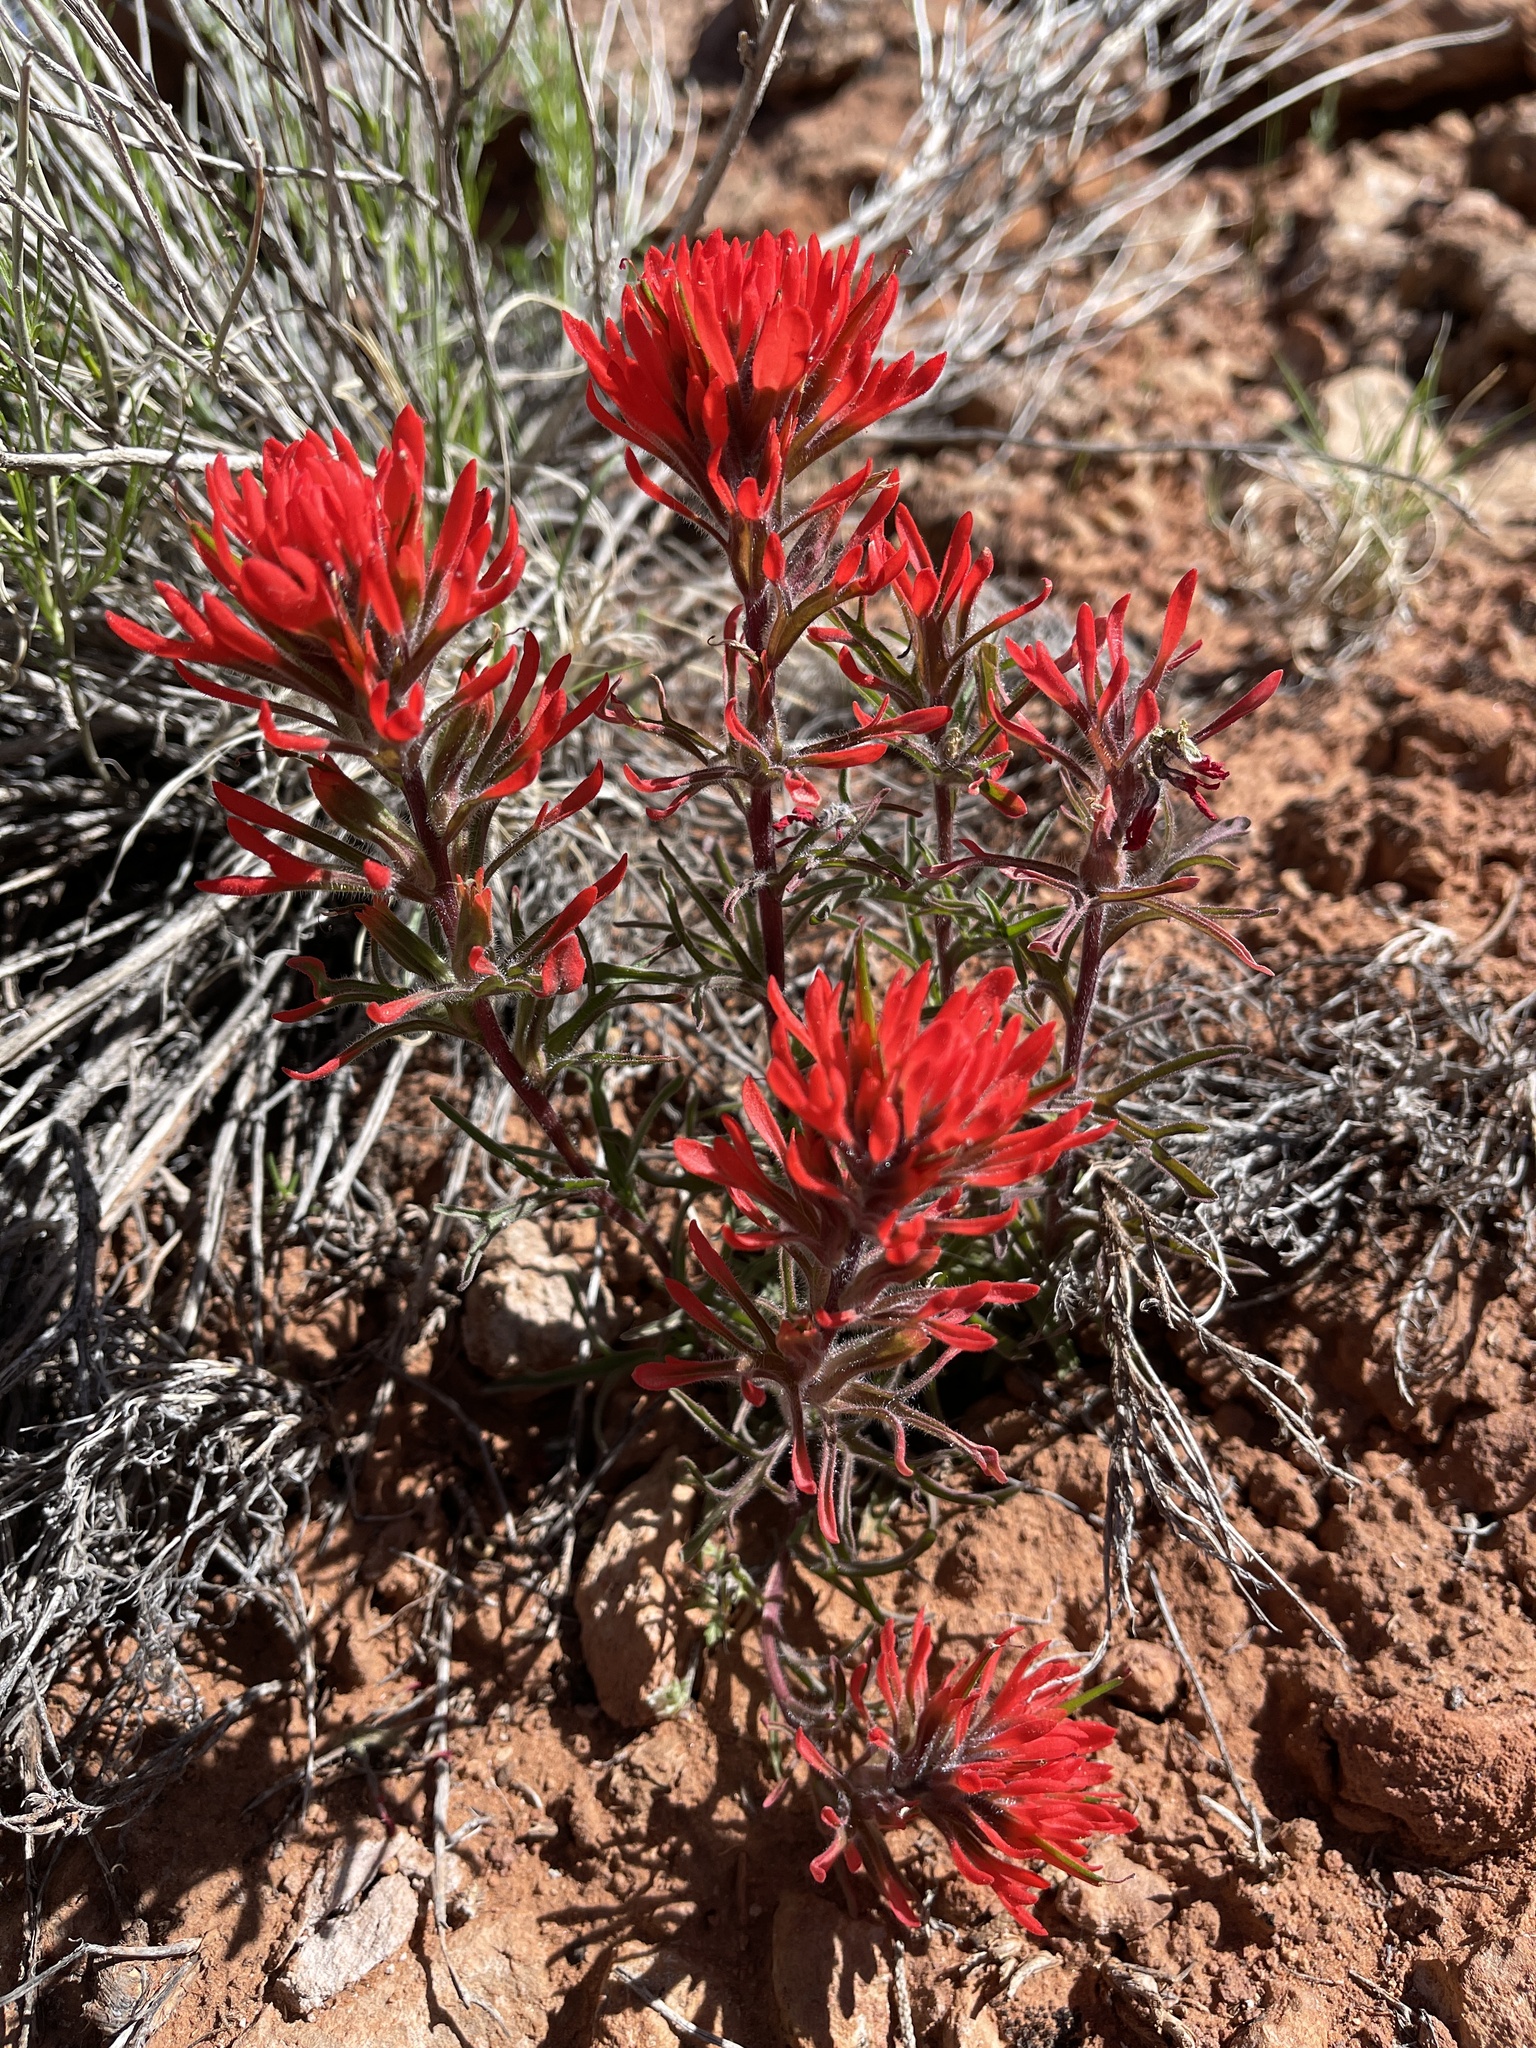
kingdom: Plantae
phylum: Tracheophyta
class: Magnoliopsida
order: Lamiales
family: Orobanchaceae
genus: Castilleja
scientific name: Castilleja chromosa
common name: Desert paintbrush
